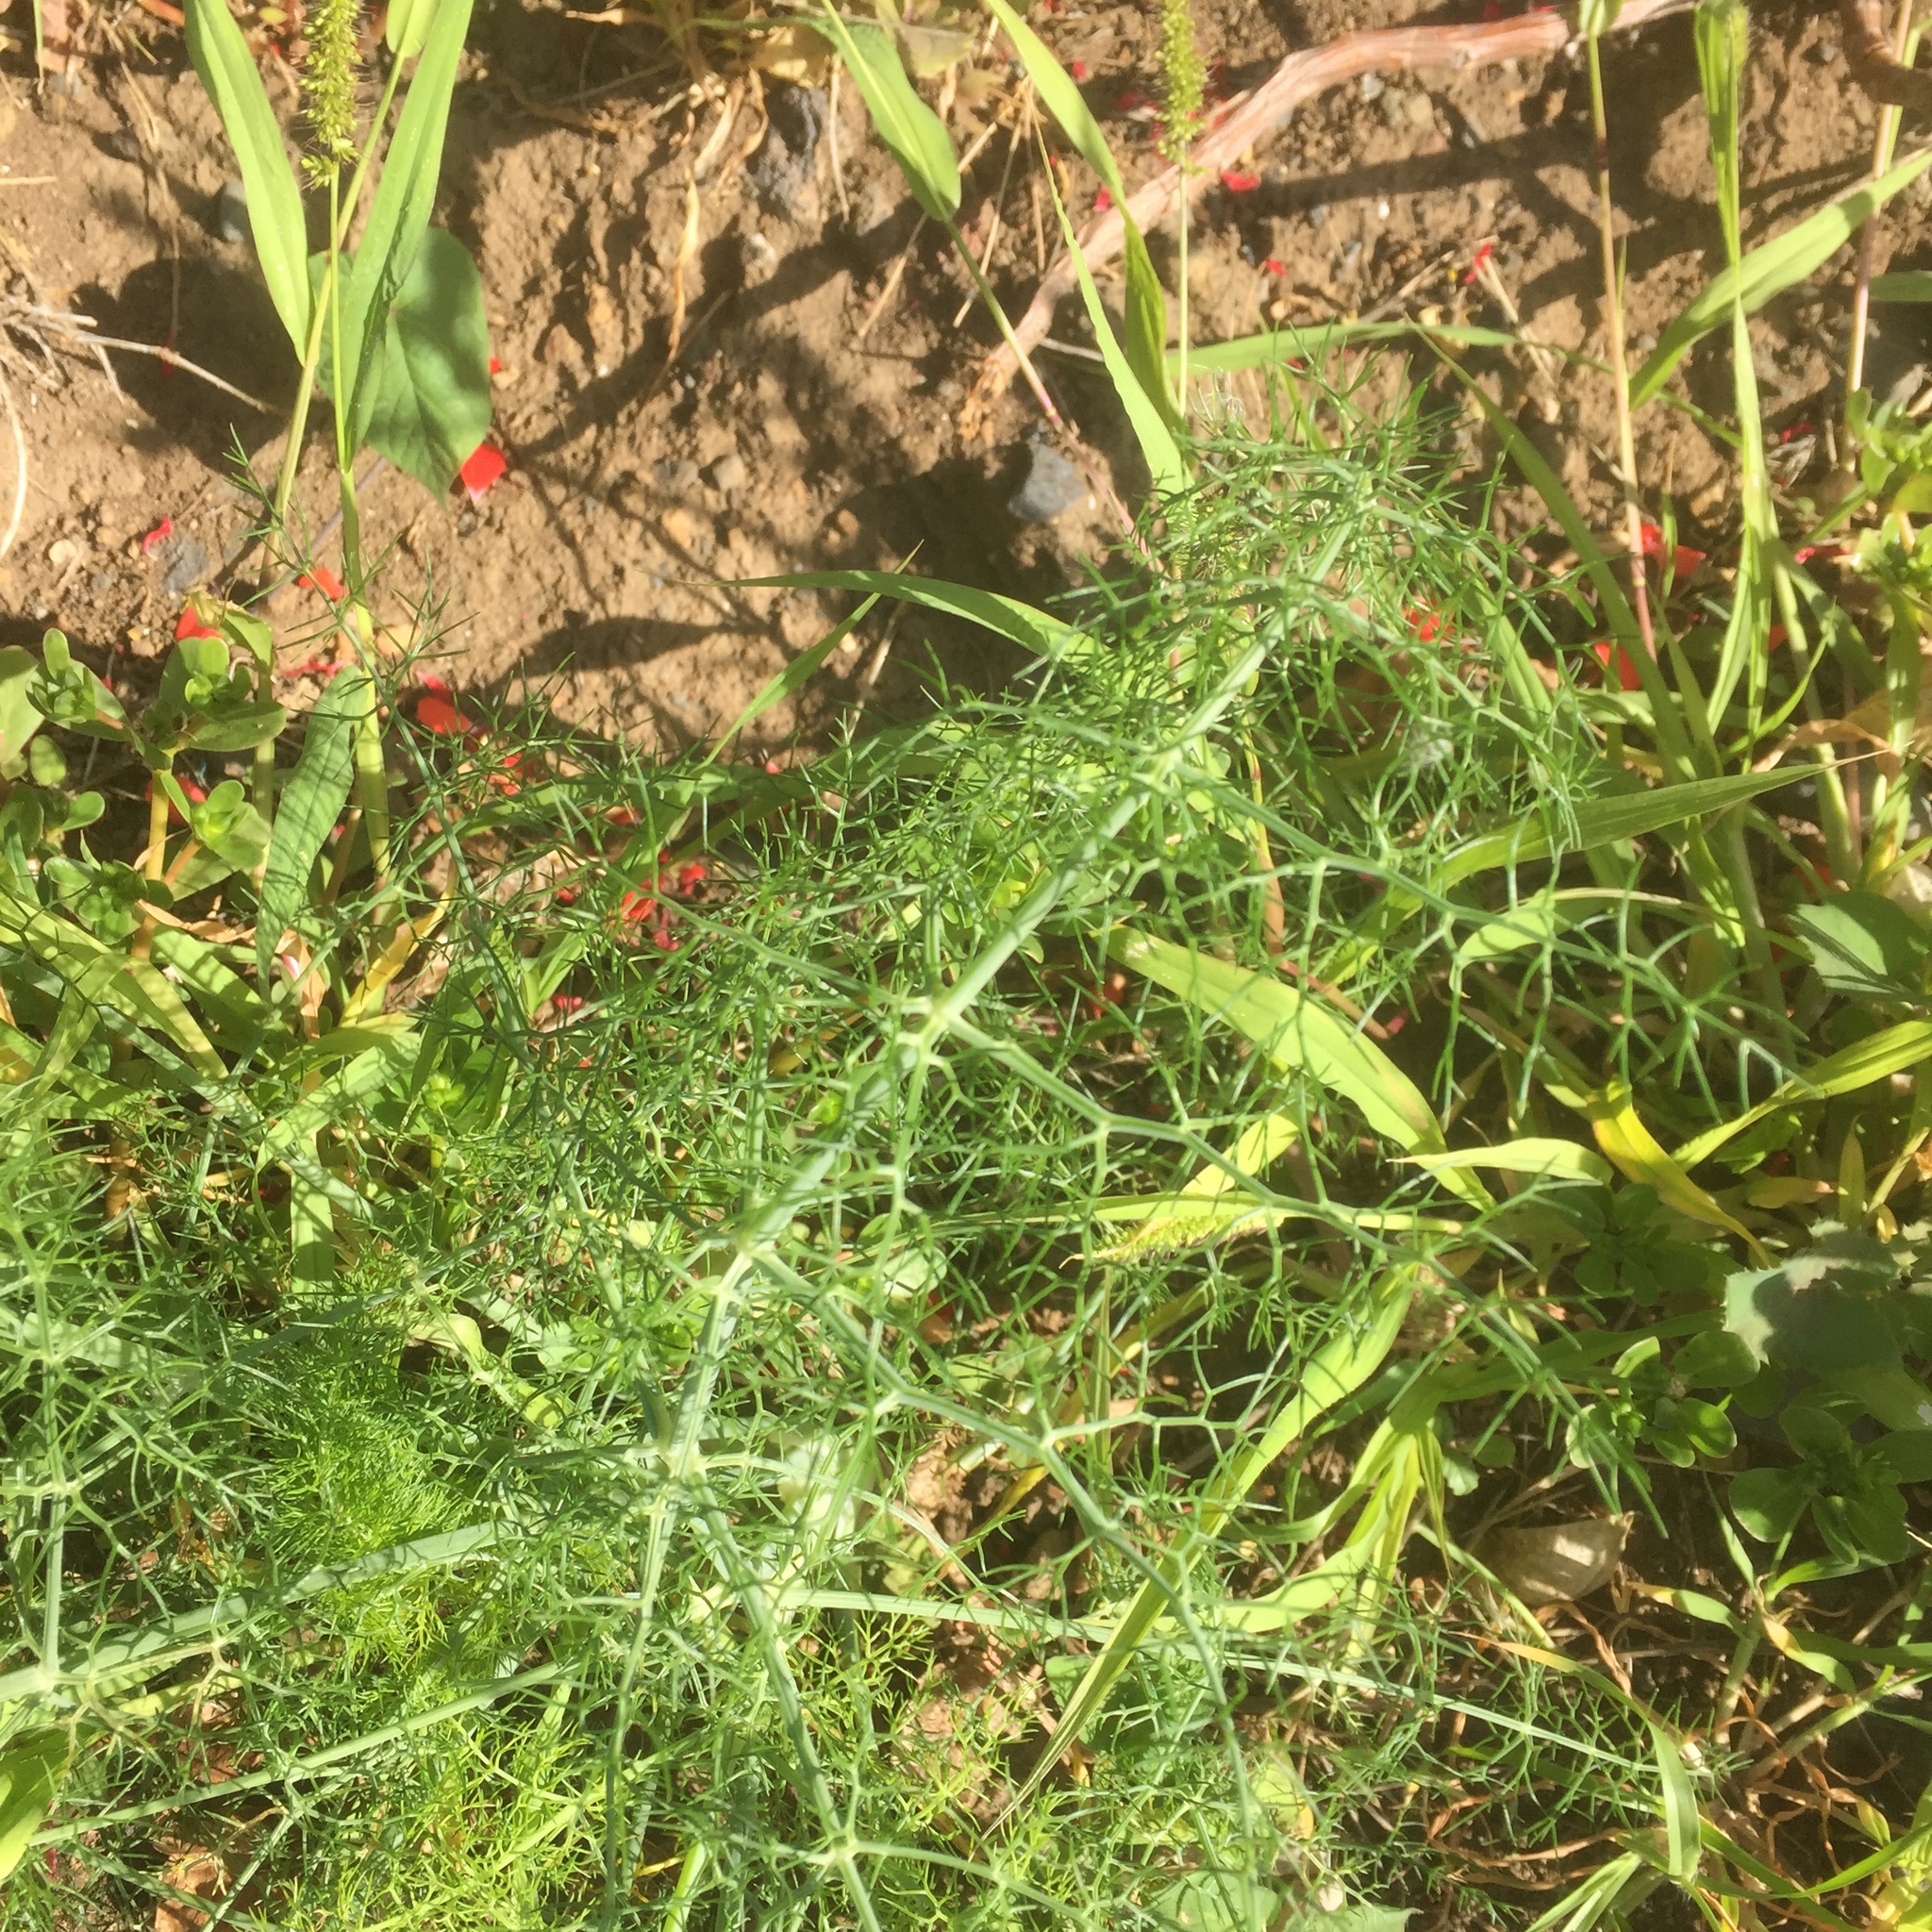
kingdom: Plantae
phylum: Tracheophyta
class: Magnoliopsida
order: Apiales
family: Apiaceae
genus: Foeniculum
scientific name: Foeniculum vulgare
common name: Fennel
